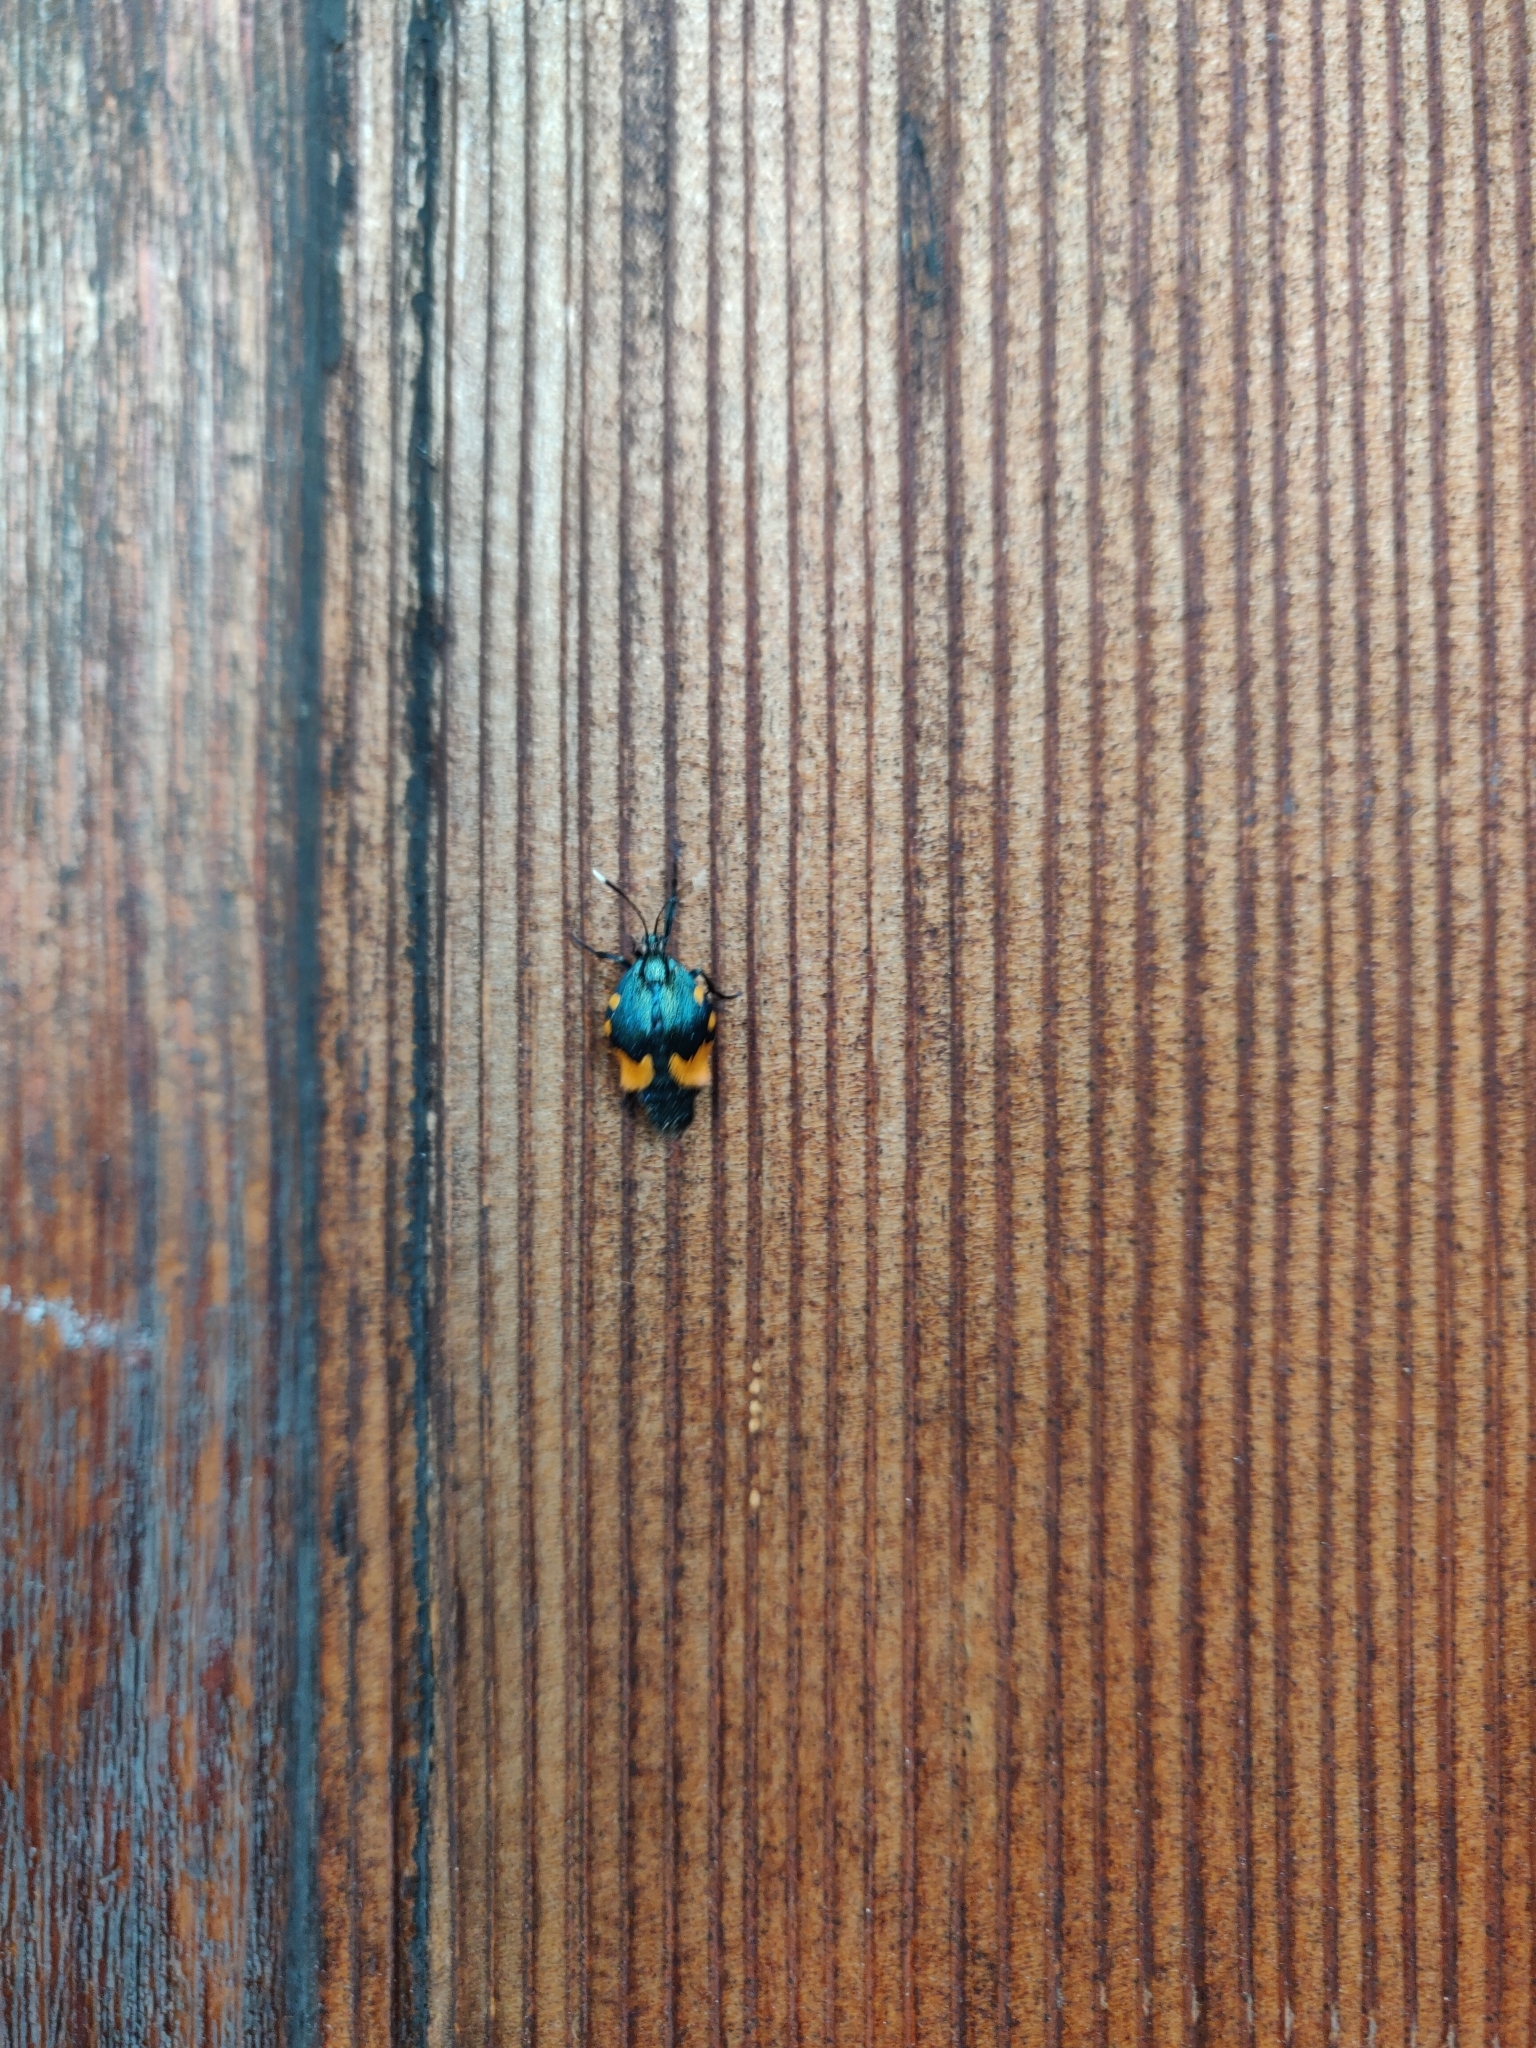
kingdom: Animalia
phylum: Arthropoda
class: Insecta
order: Lepidoptera
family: Psychidae
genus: Cebysa
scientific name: Cebysa leucotelus
